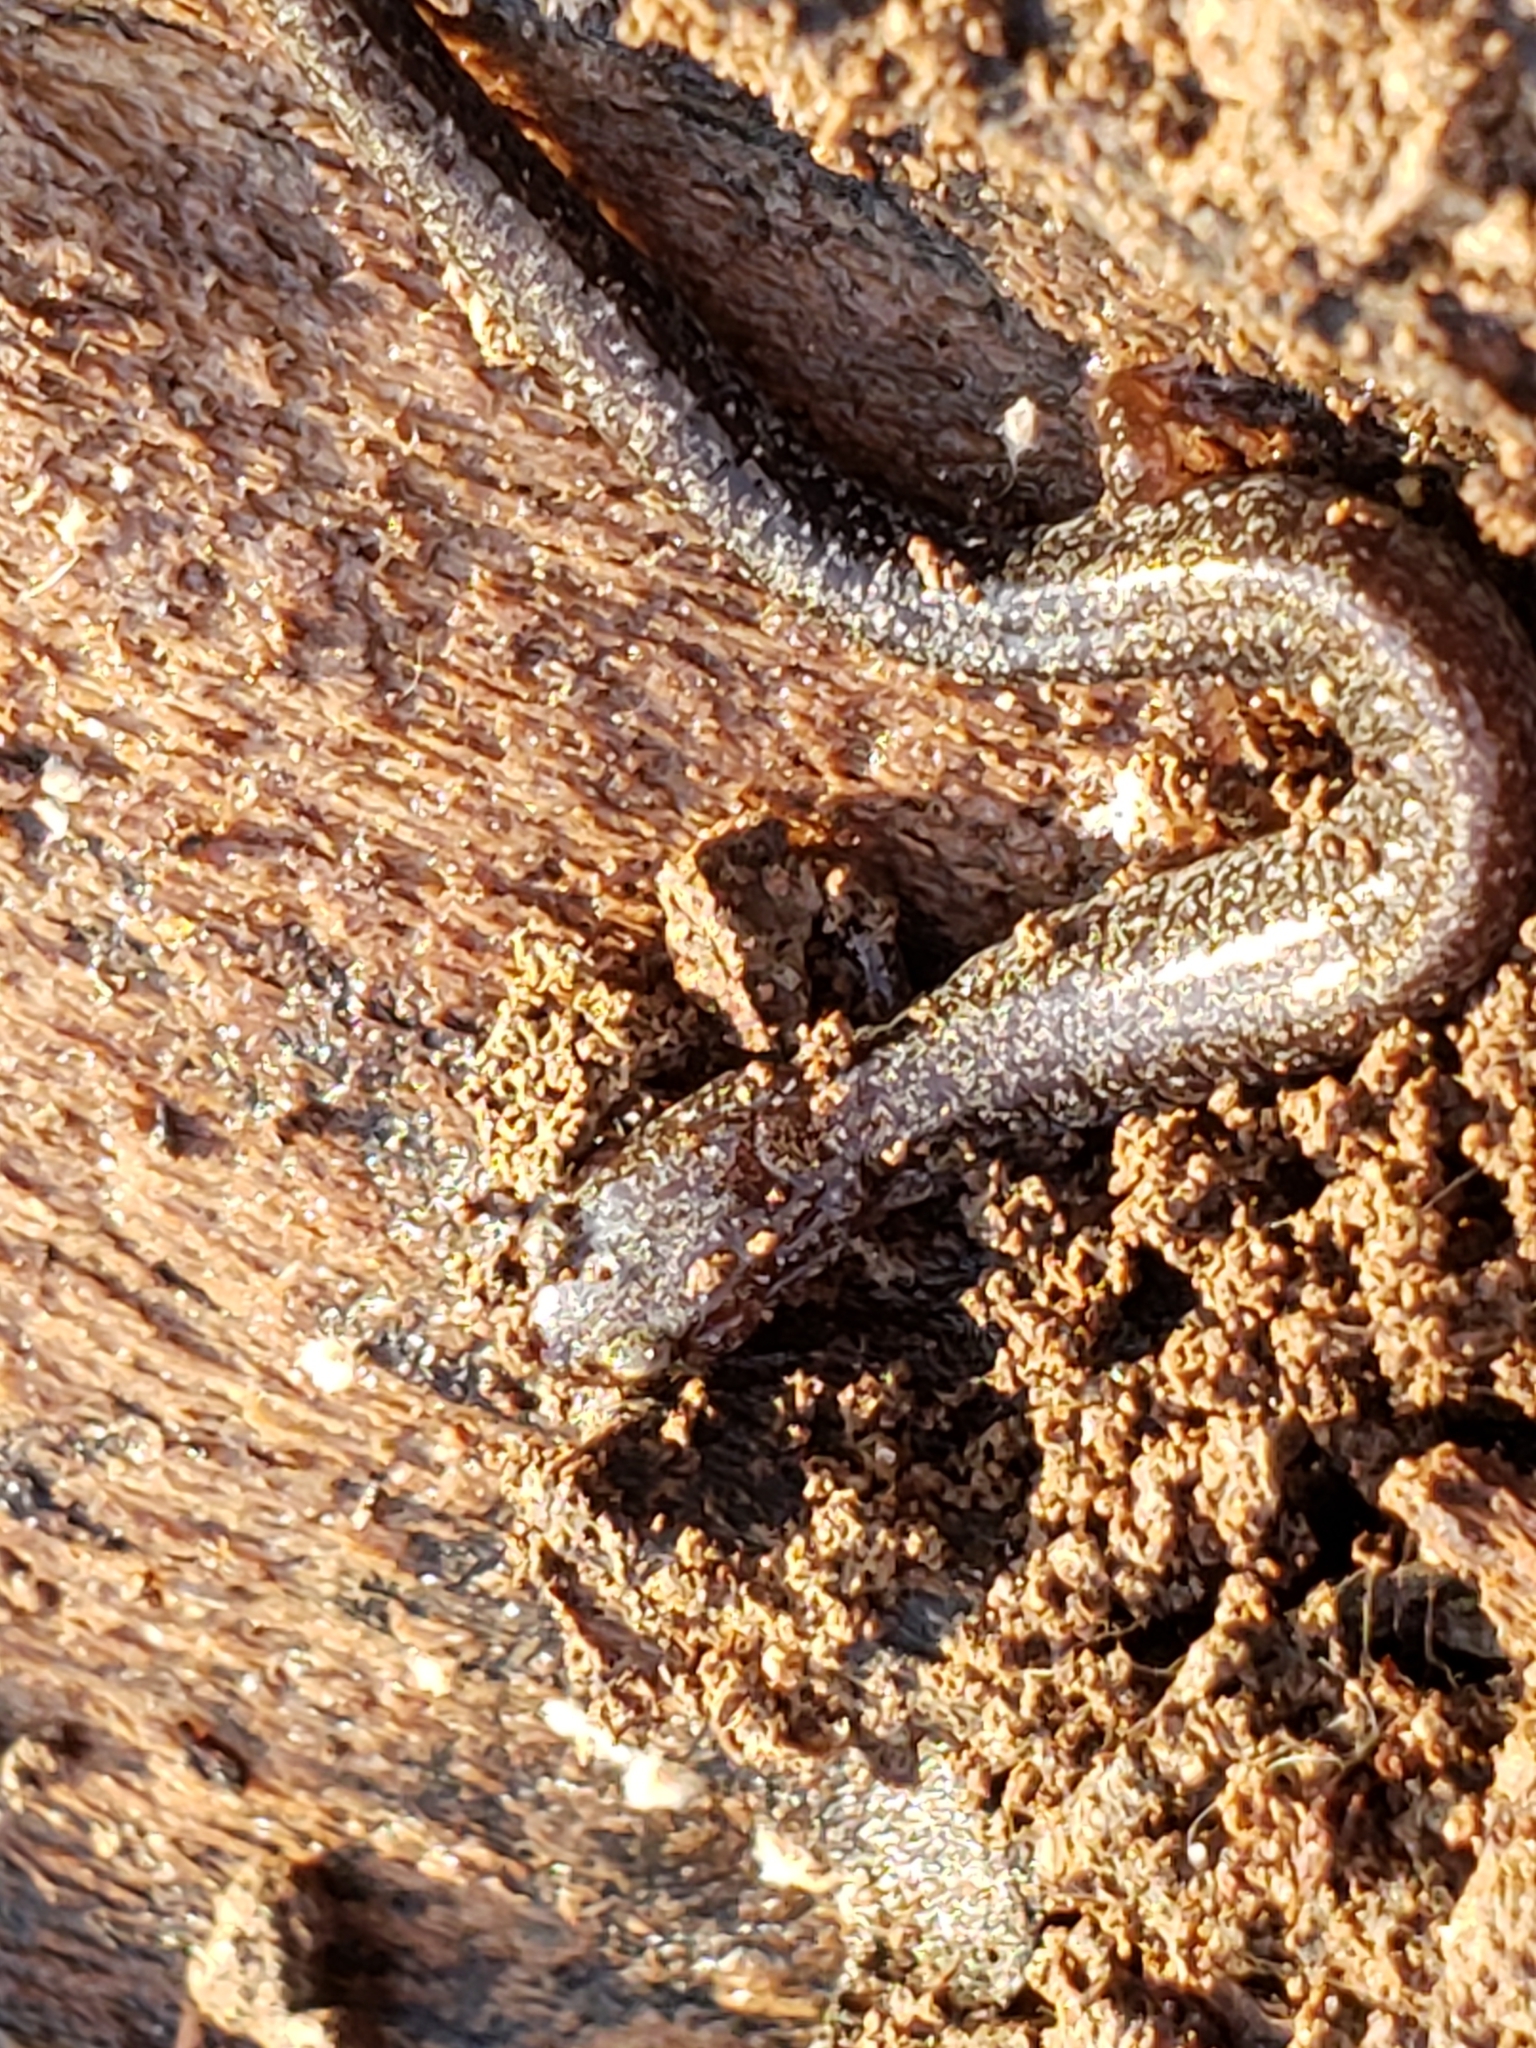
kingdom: Animalia
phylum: Chordata
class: Amphibia
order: Caudata
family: Plethodontidae
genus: Plethodon
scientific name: Plethodon cinereus
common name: Redback salamander
